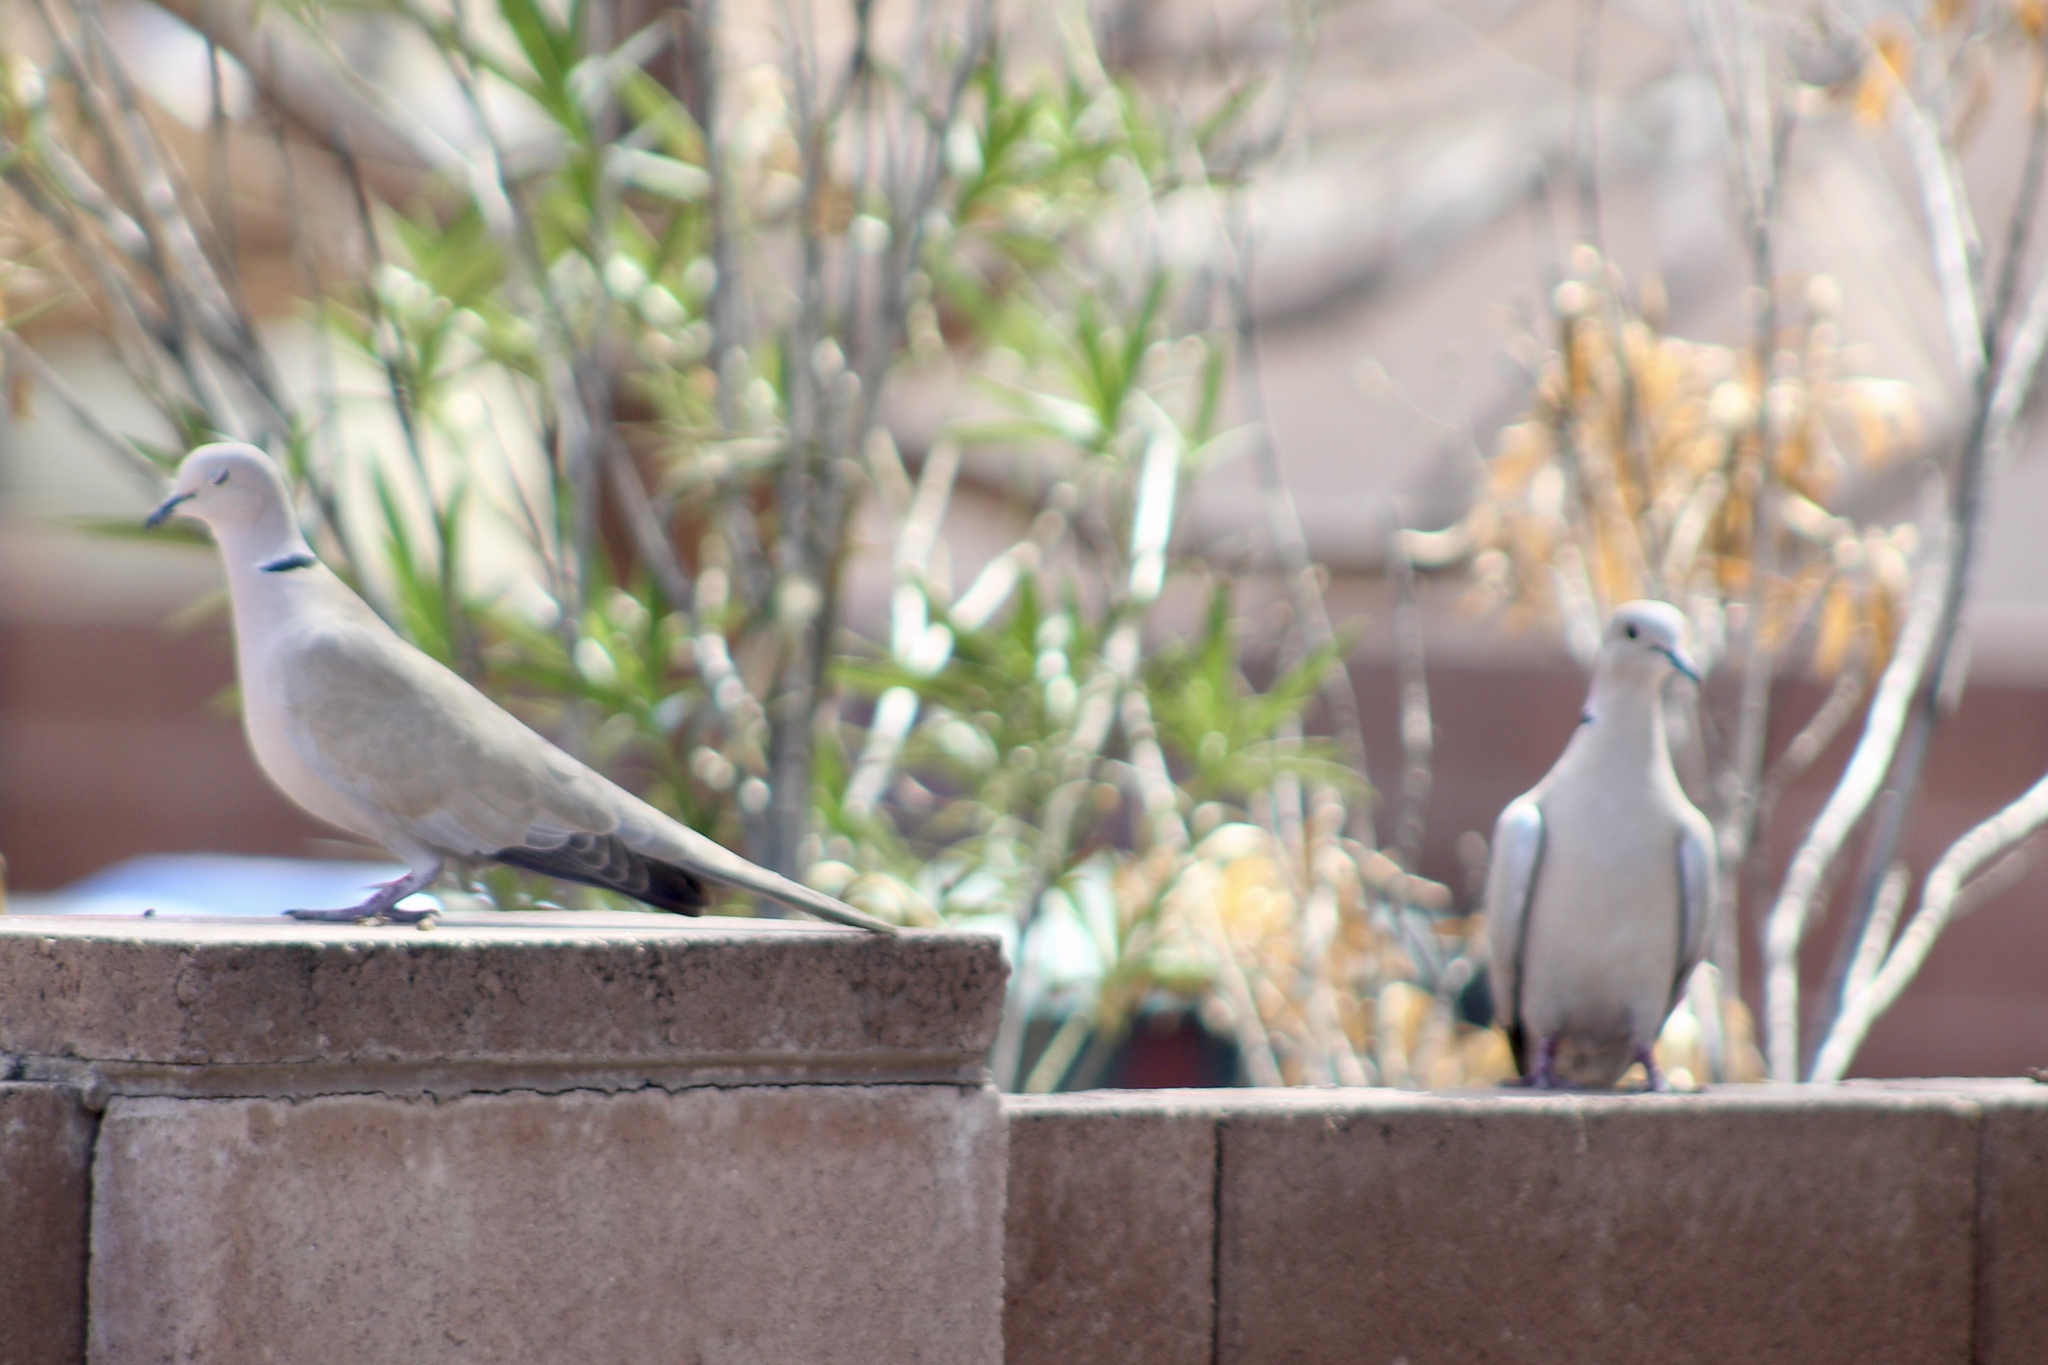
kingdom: Animalia
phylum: Chordata
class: Aves
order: Columbiformes
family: Columbidae
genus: Streptopelia
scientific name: Streptopelia decaocto
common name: Eurasian collared dove
